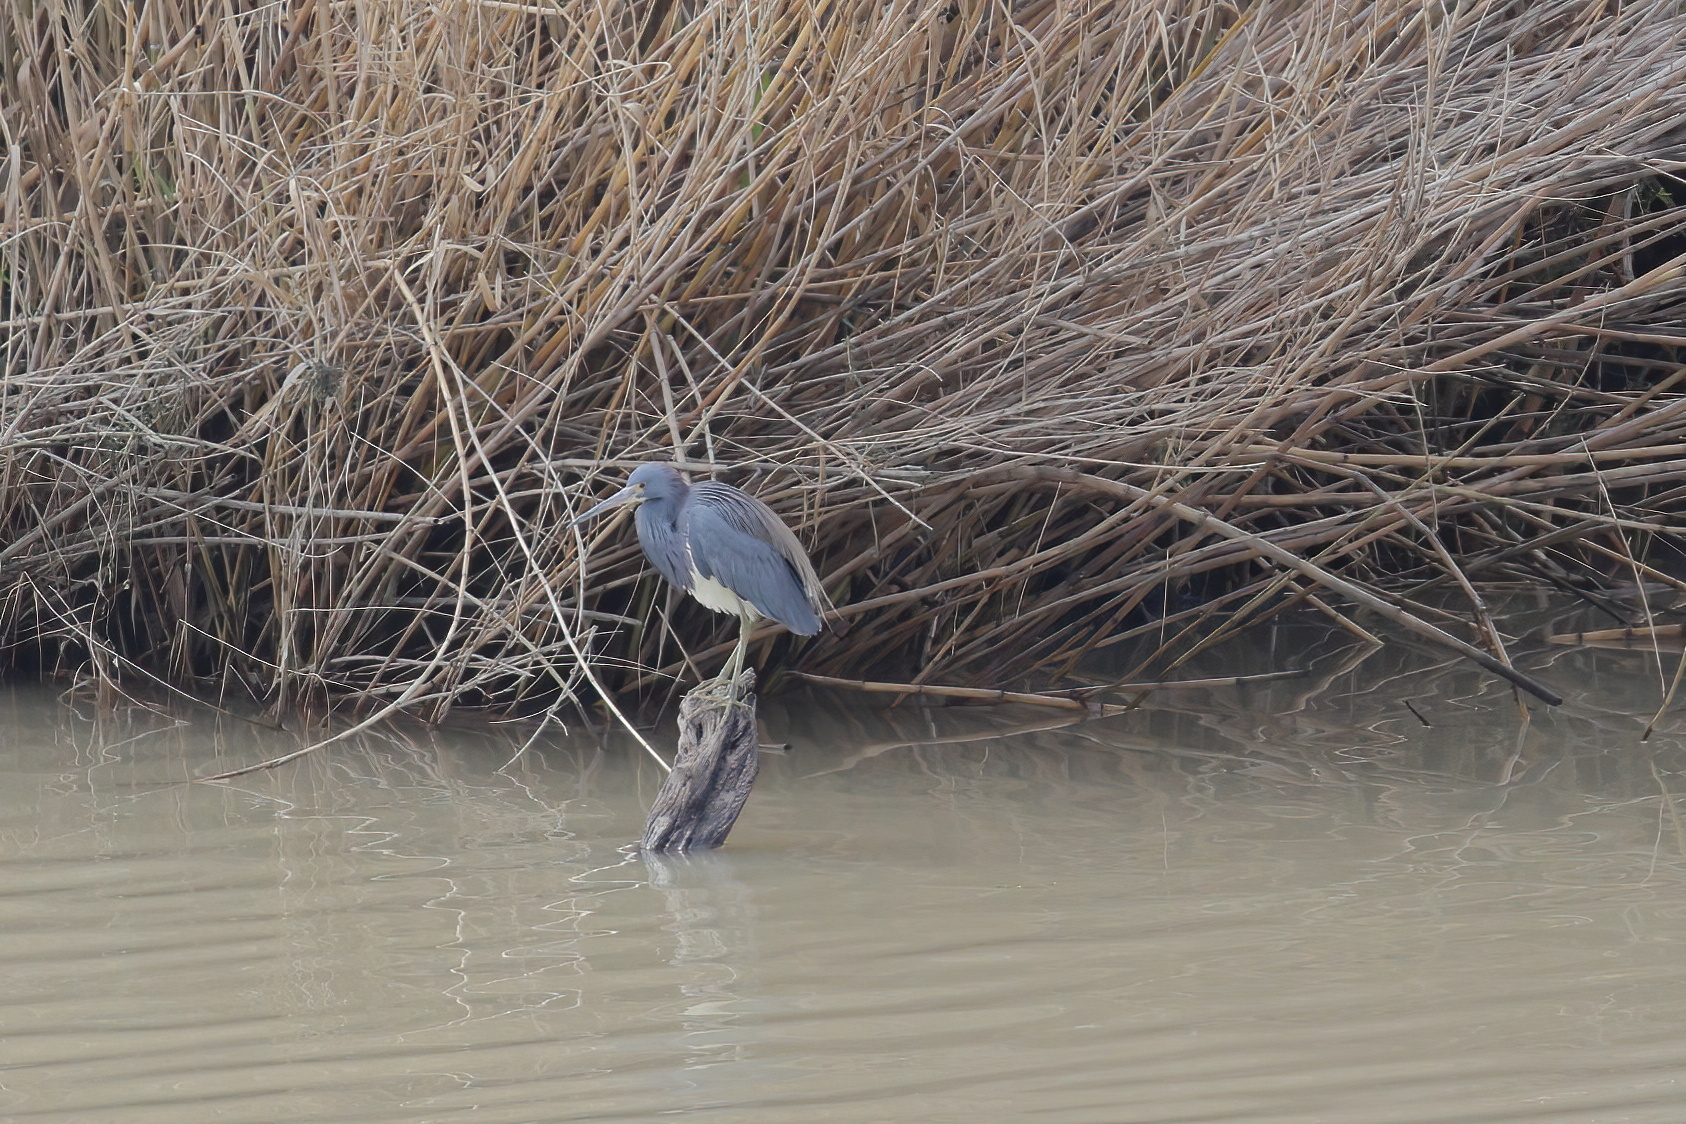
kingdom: Animalia
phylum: Chordata
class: Aves
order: Pelecaniformes
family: Ardeidae
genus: Egretta
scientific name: Egretta tricolor
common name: Tricolored heron
